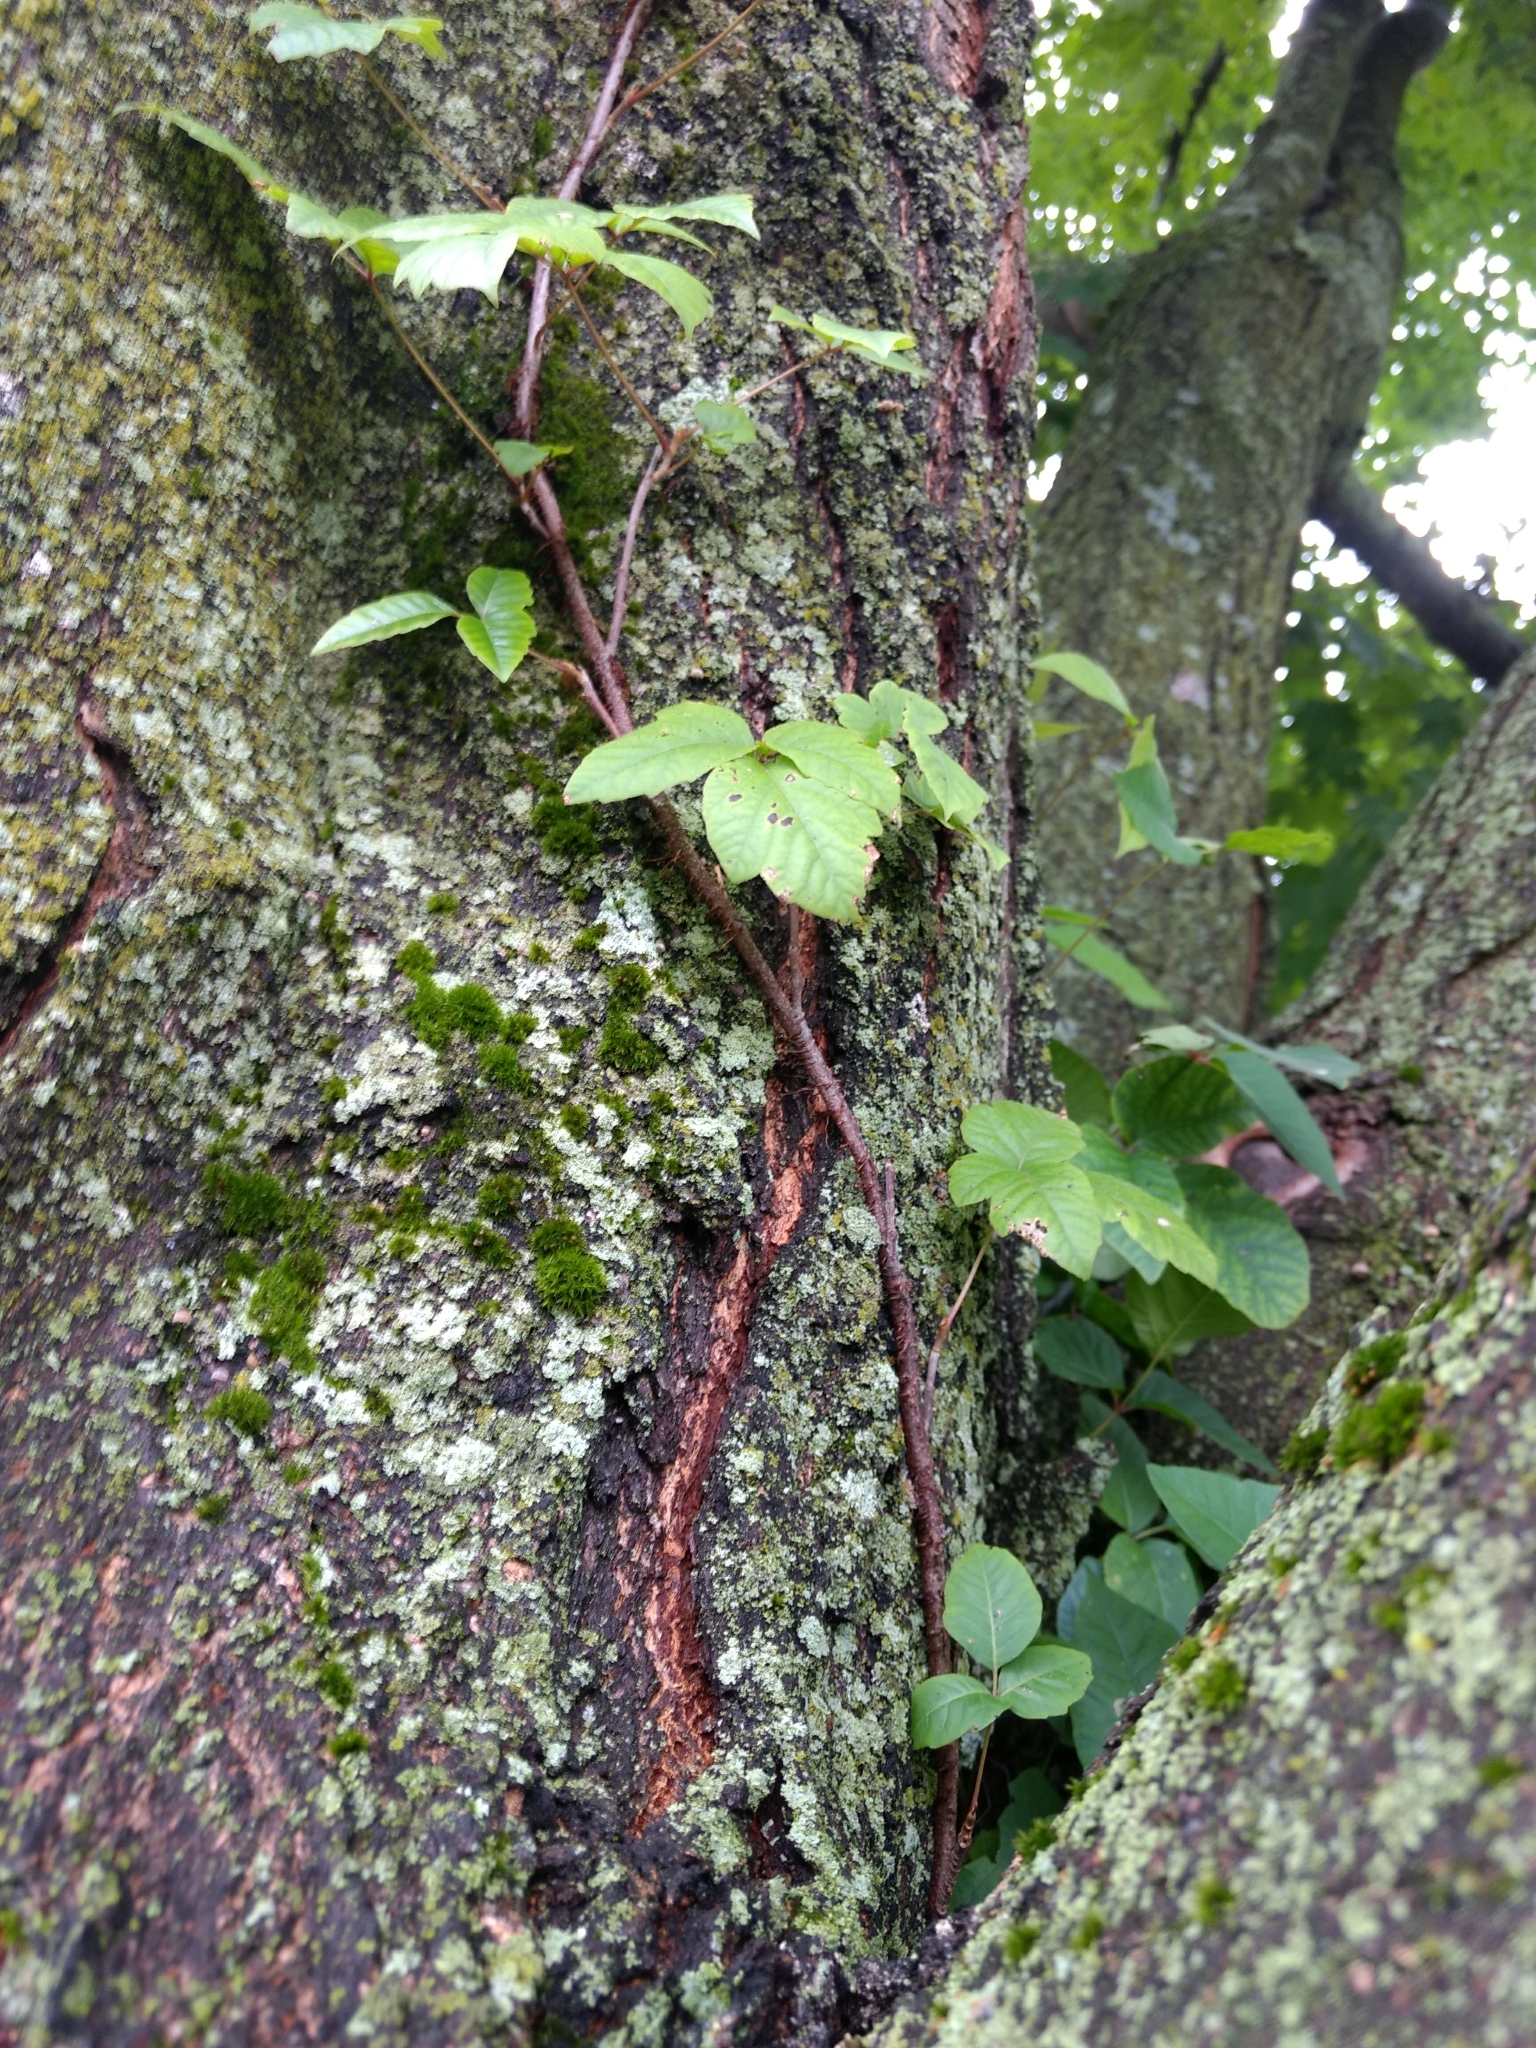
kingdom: Plantae
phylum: Tracheophyta
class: Magnoliopsida
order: Sapindales
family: Anacardiaceae
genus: Toxicodendron
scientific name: Toxicodendron radicans
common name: Poison ivy
